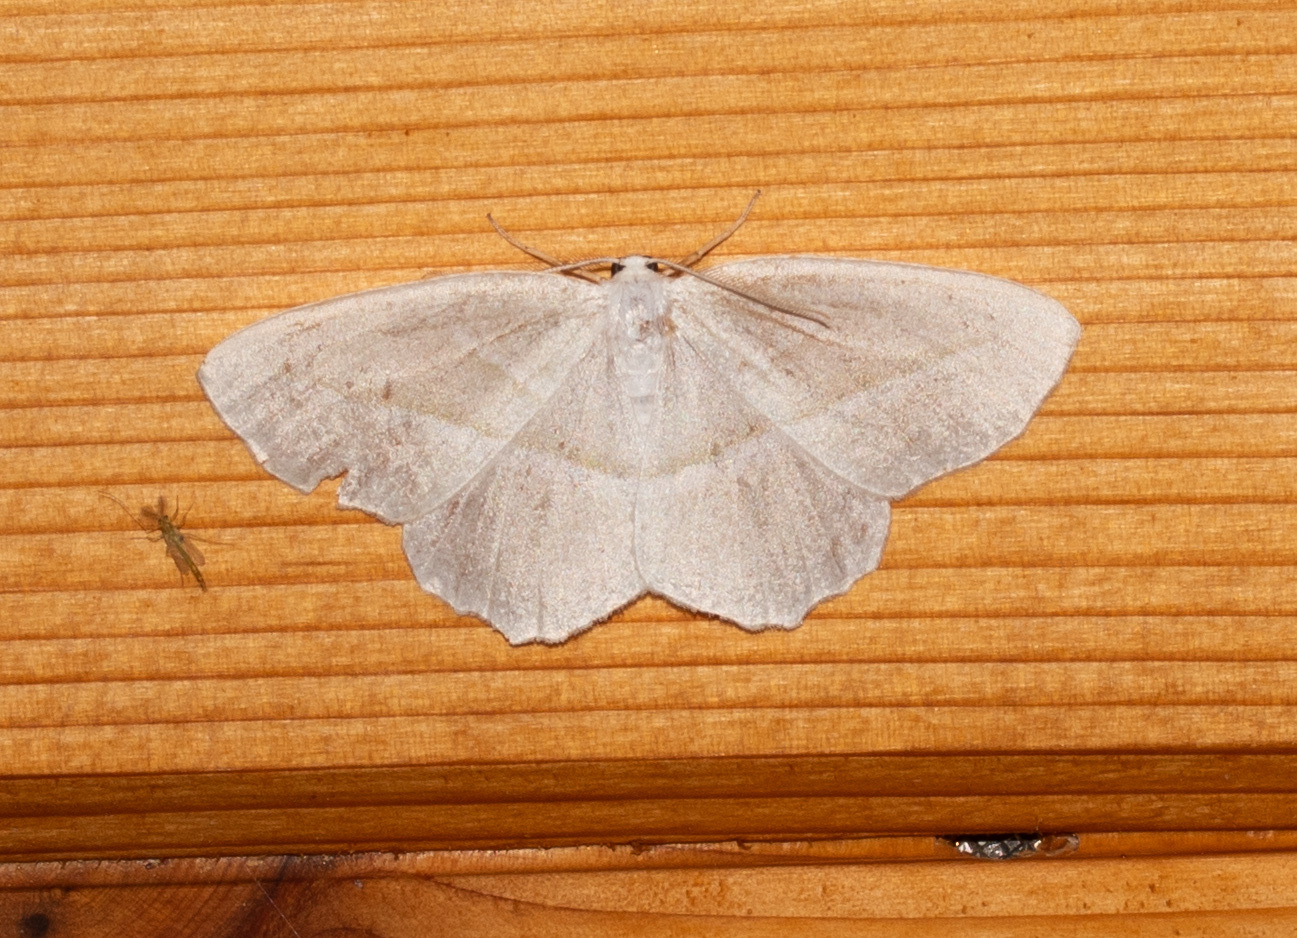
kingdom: Animalia
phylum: Arthropoda
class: Insecta
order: Lepidoptera
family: Geometridae
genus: Campaea
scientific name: Campaea perlata
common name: Fringed looper
